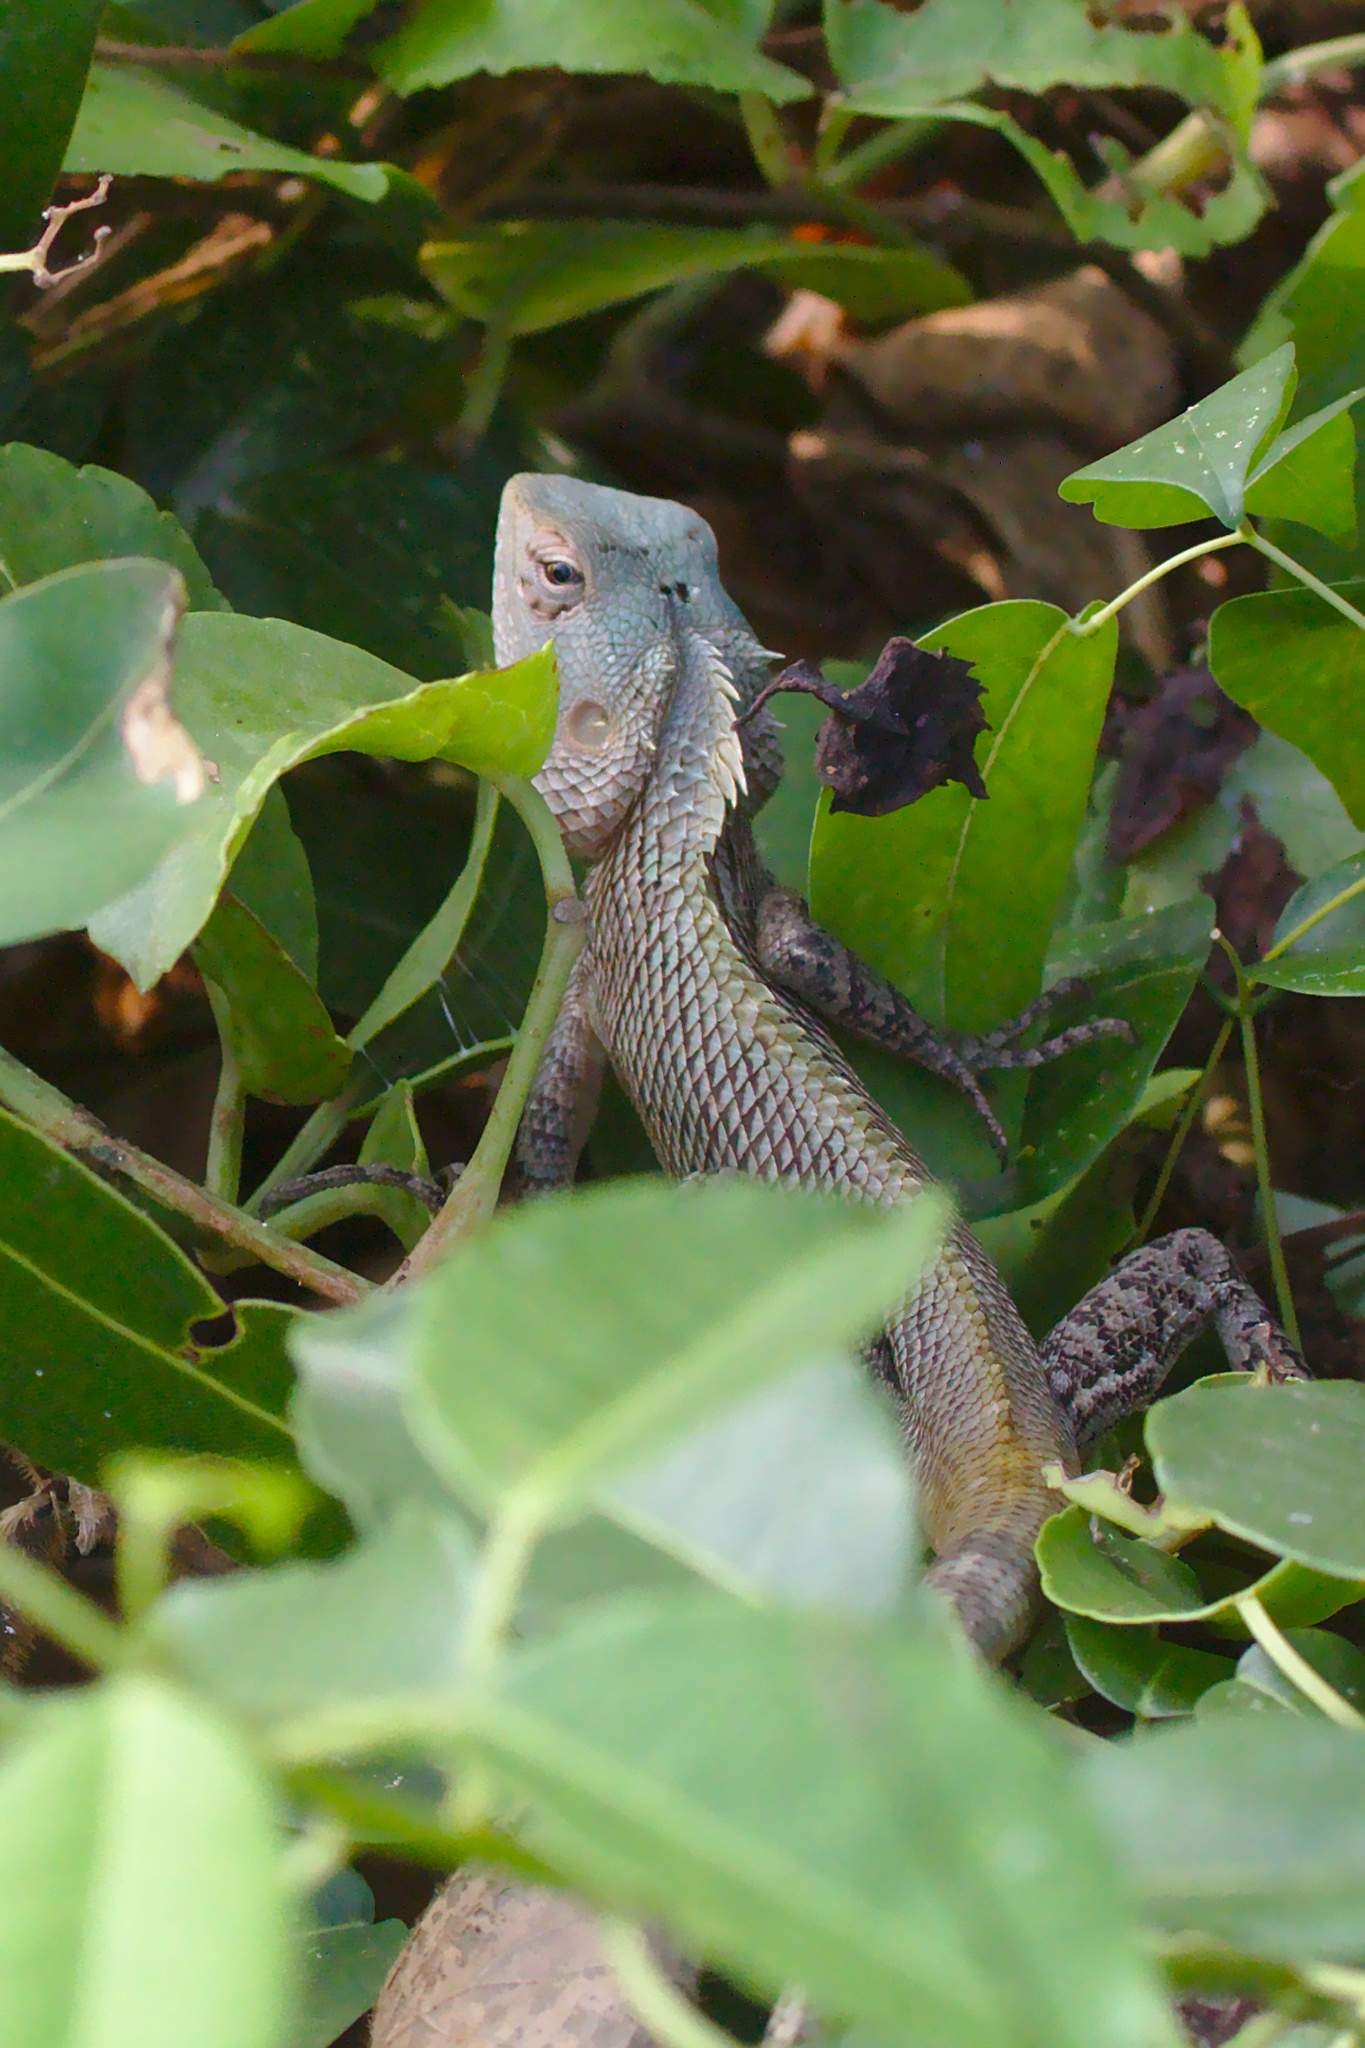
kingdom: Animalia
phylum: Chordata
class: Squamata
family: Agamidae
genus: Calotes
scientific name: Calotes versicolor
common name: Oriental garden lizard
